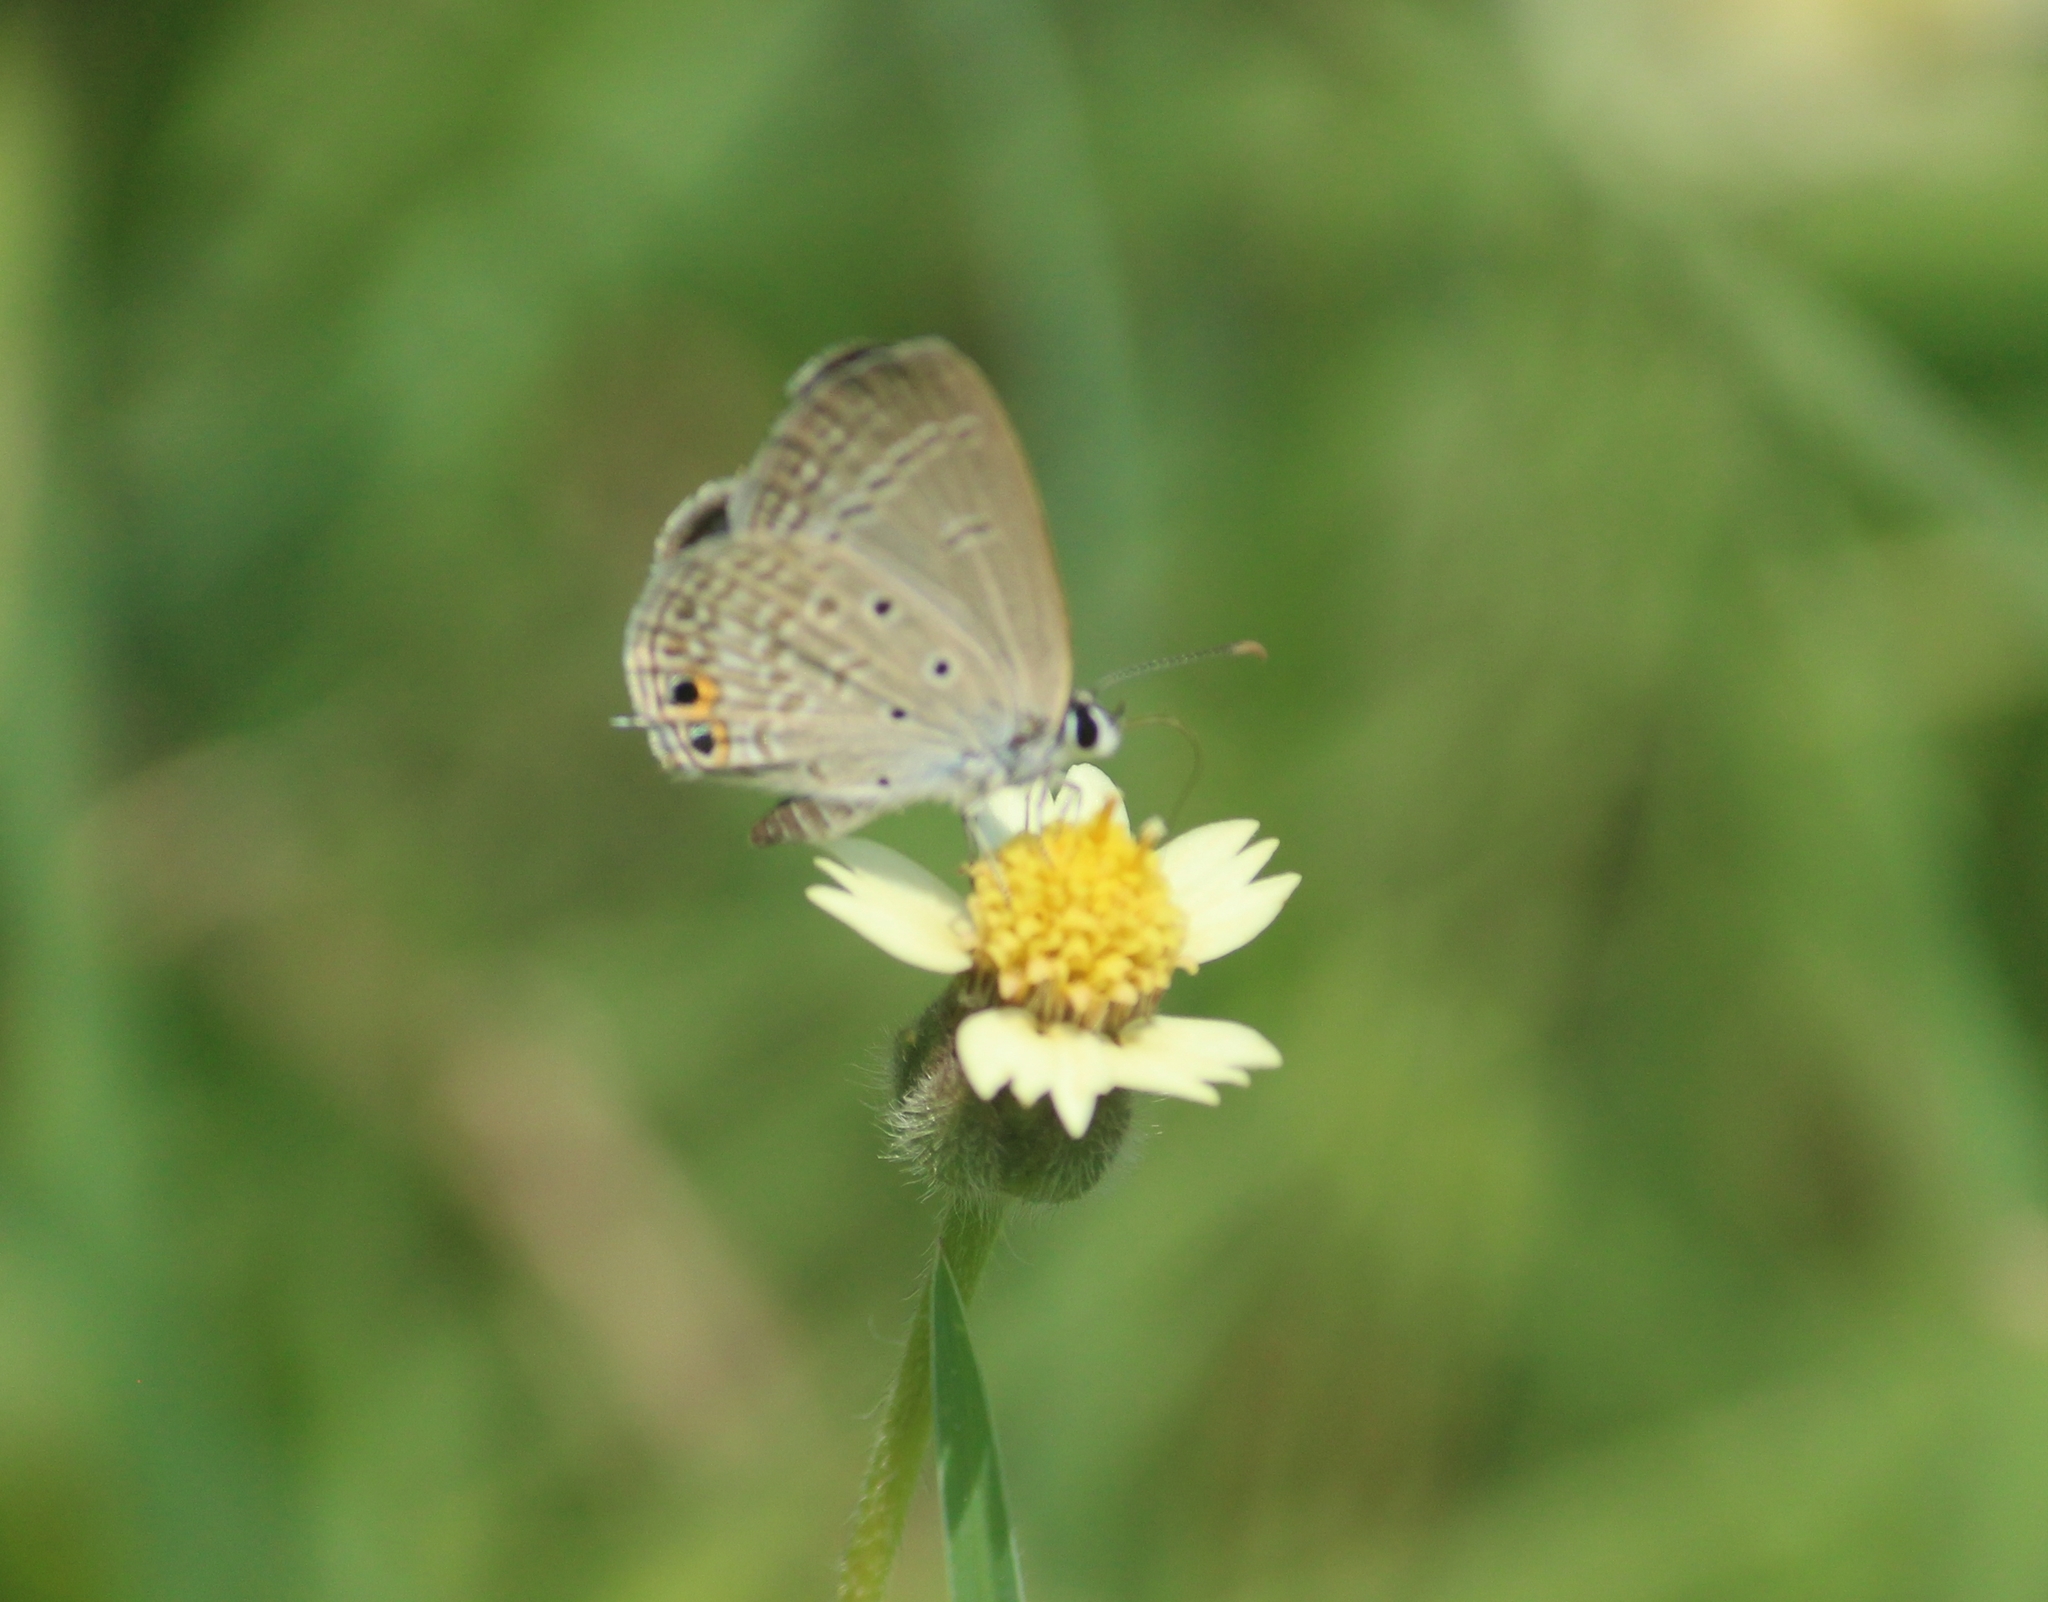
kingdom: Animalia
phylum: Arthropoda
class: Insecta
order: Lepidoptera
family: Lycaenidae
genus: Euchrysops
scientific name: Euchrysops cnejus
